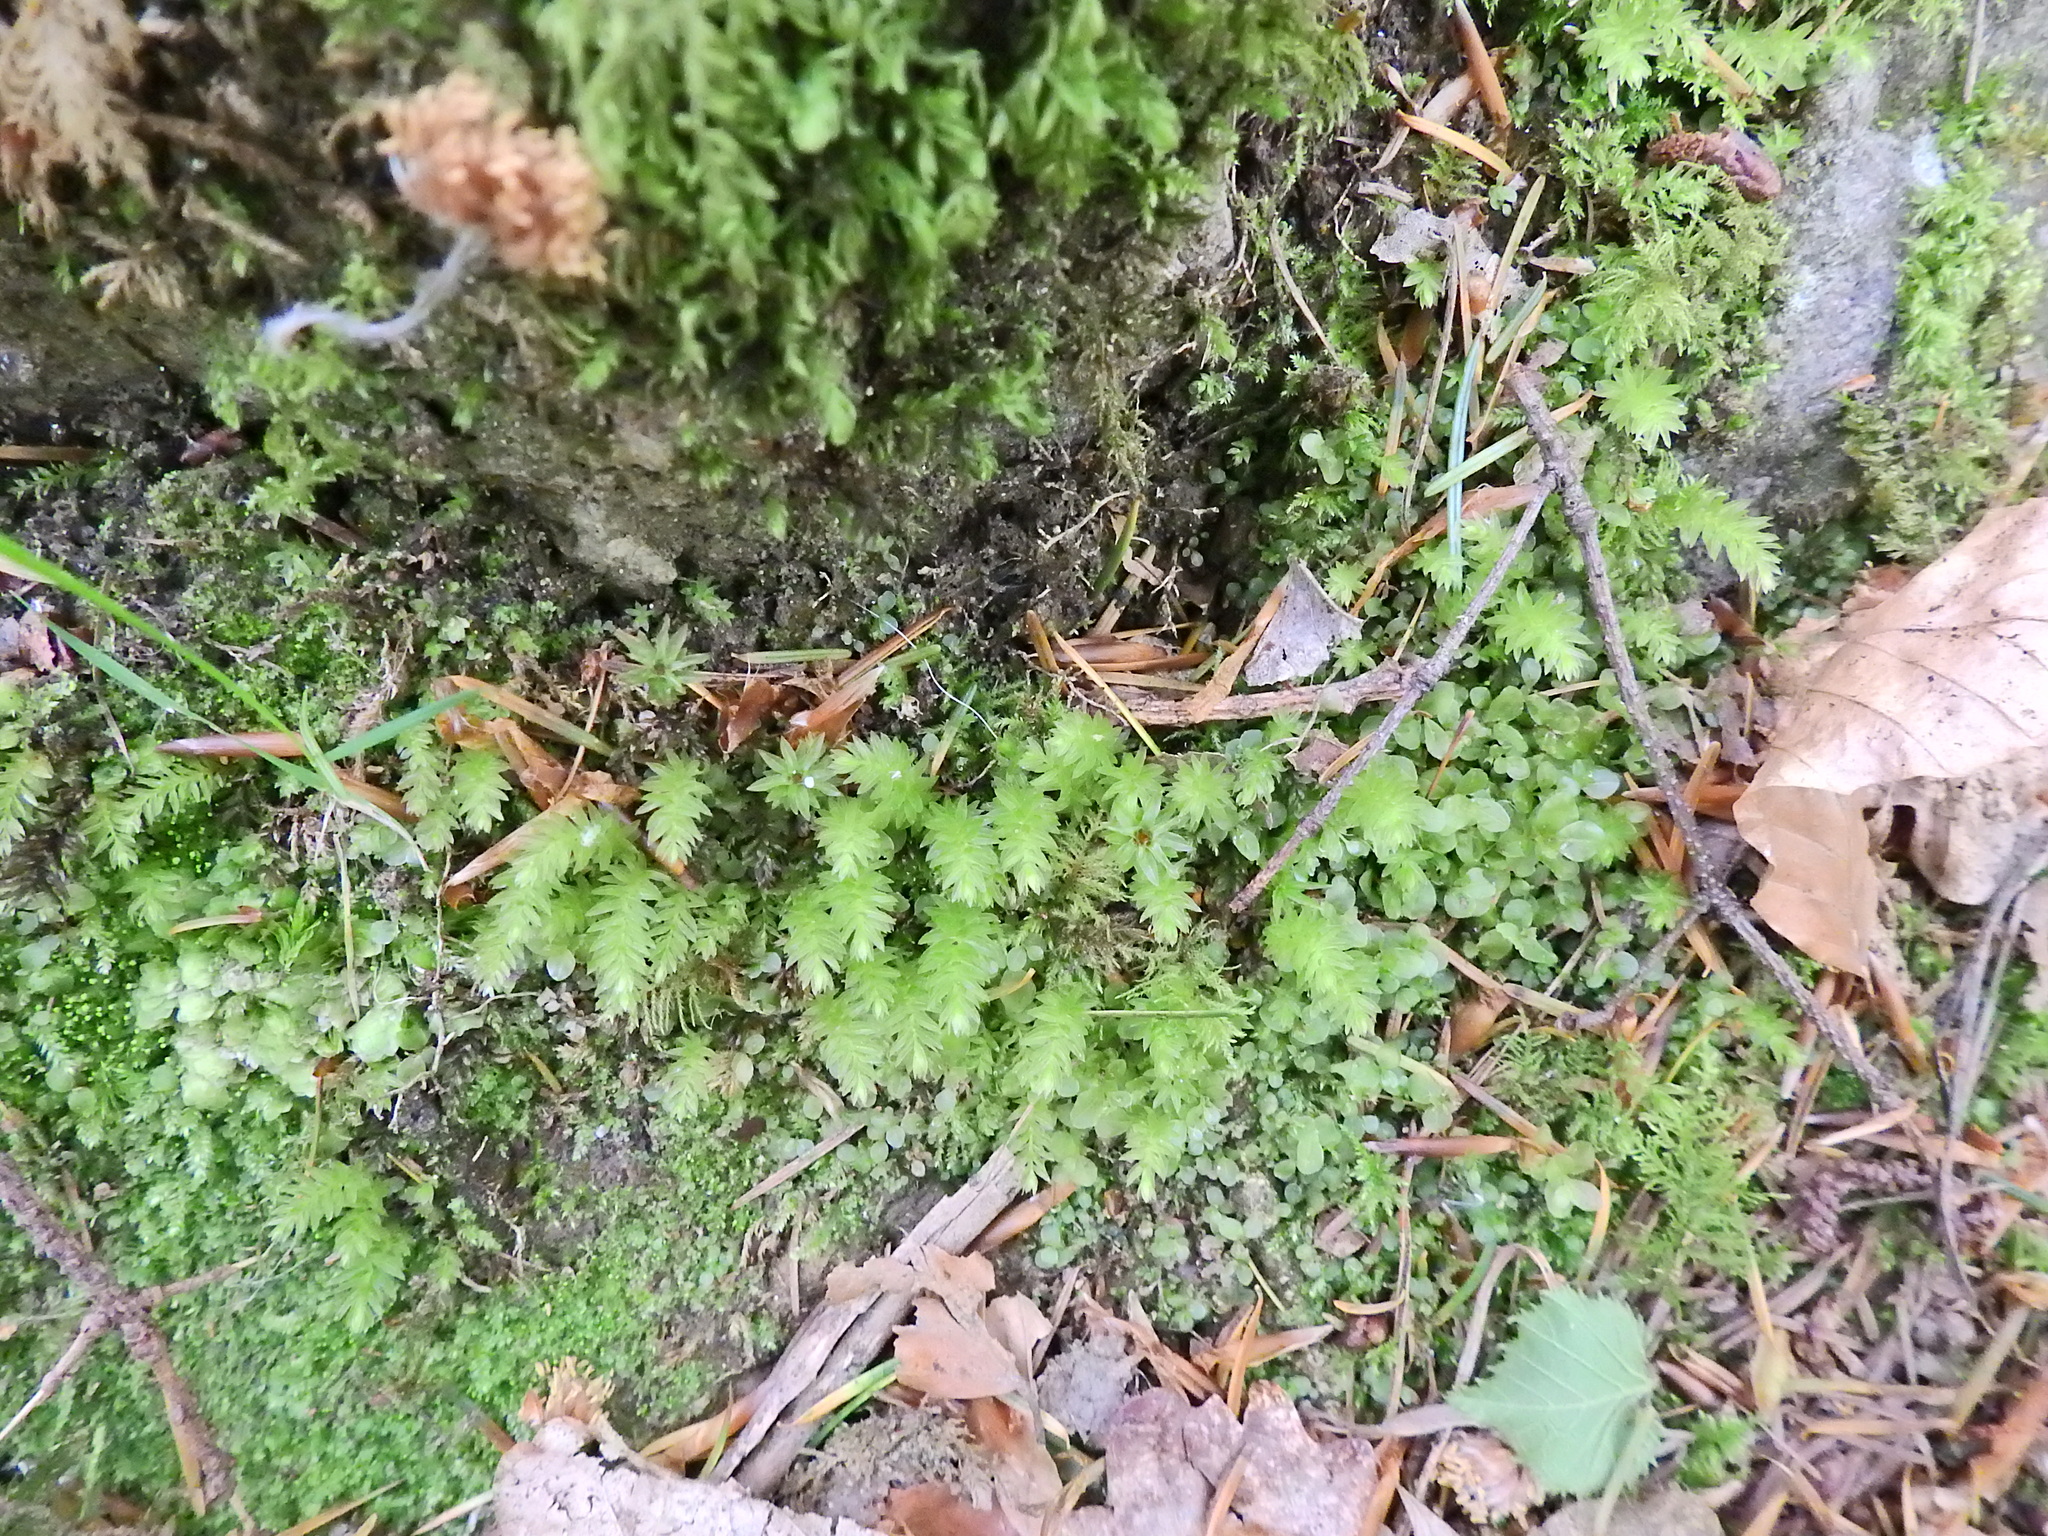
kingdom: Plantae
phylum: Bryophyta
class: Bryopsida
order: Bryales
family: Mniaceae
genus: Mnium
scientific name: Mnium hornum
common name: Swan's-neck leafy moss
